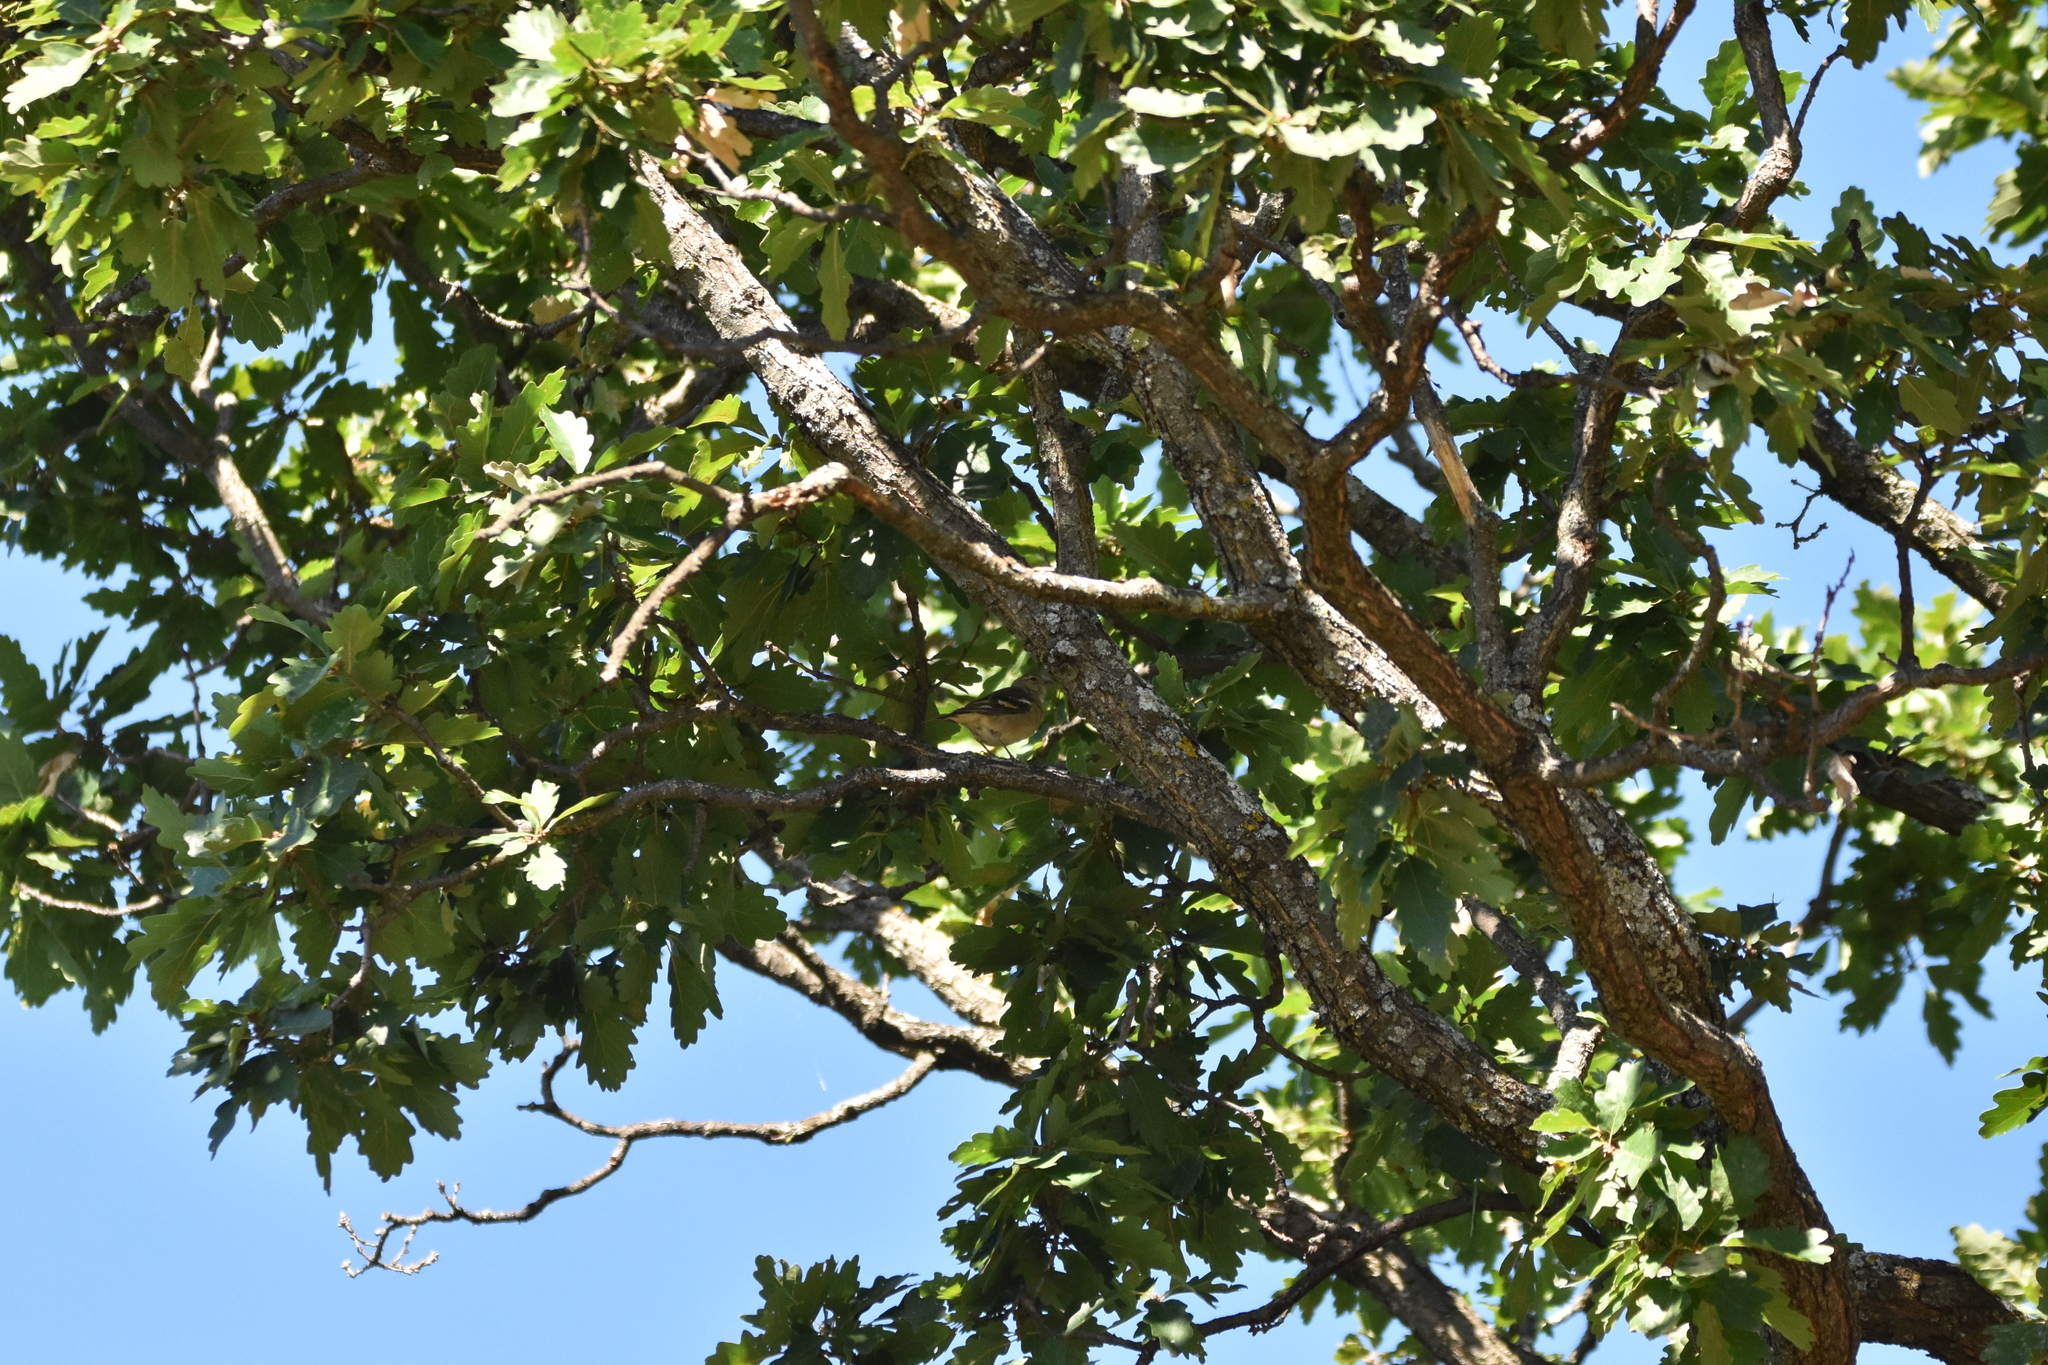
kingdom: Animalia
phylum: Chordata
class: Aves
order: Passeriformes
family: Fringillidae
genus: Fringilla
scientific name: Fringilla coelebs
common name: Common chaffinch
